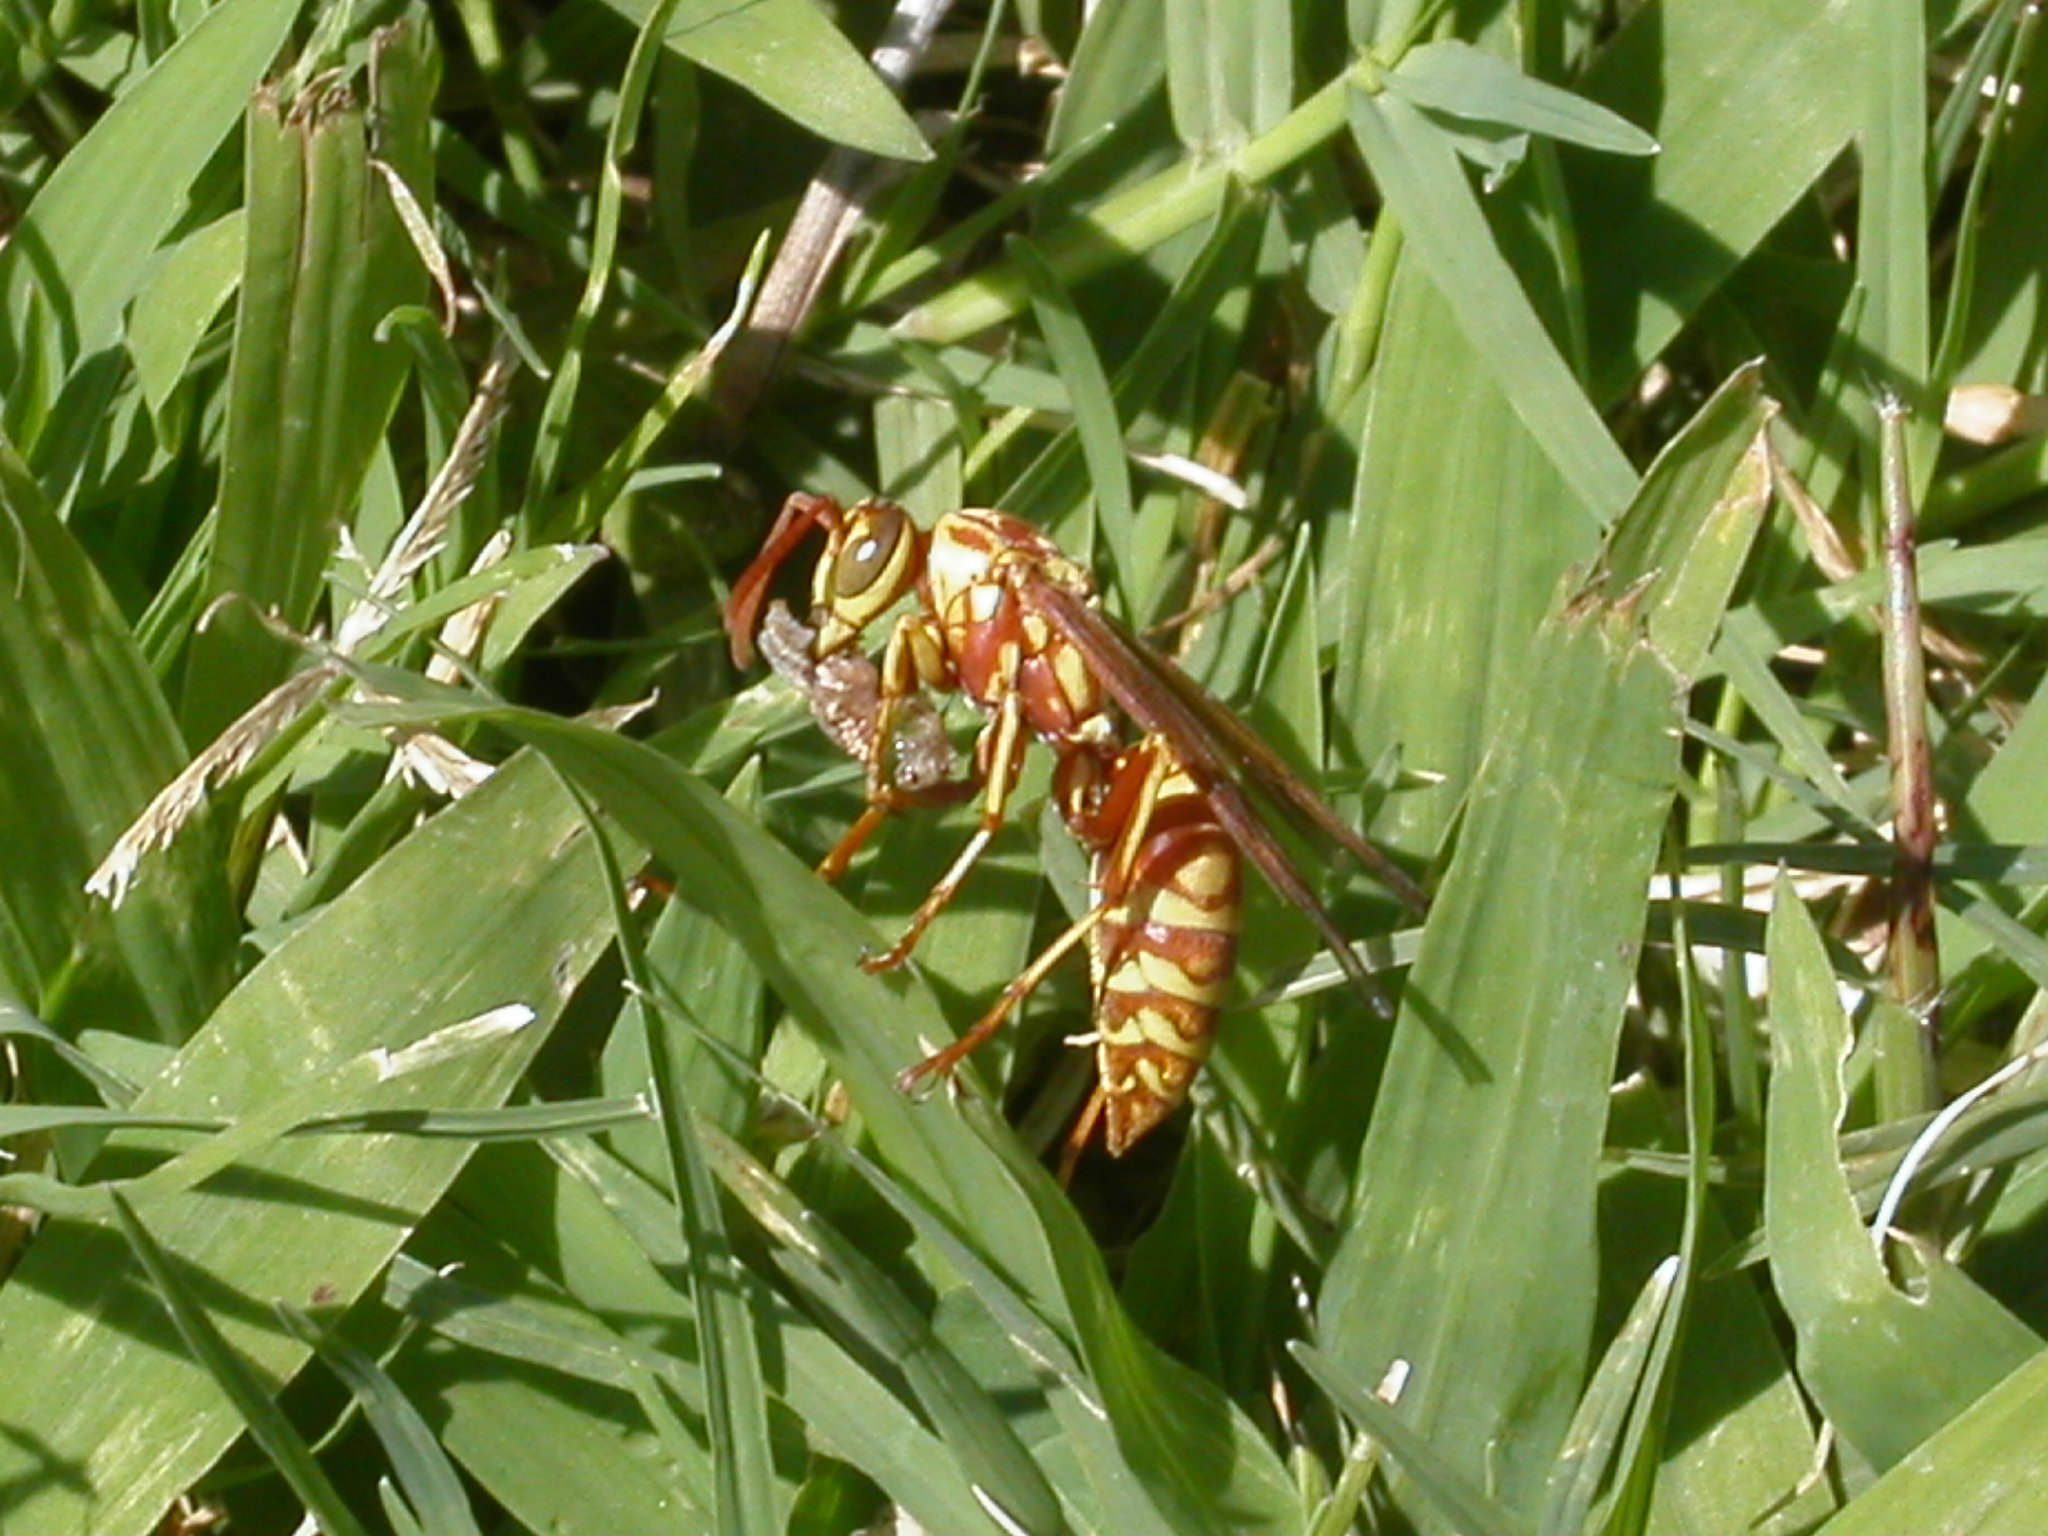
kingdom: Animalia
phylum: Arthropoda
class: Insecta
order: Hymenoptera
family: Eumenidae
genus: Polistes
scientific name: Polistes apachus
